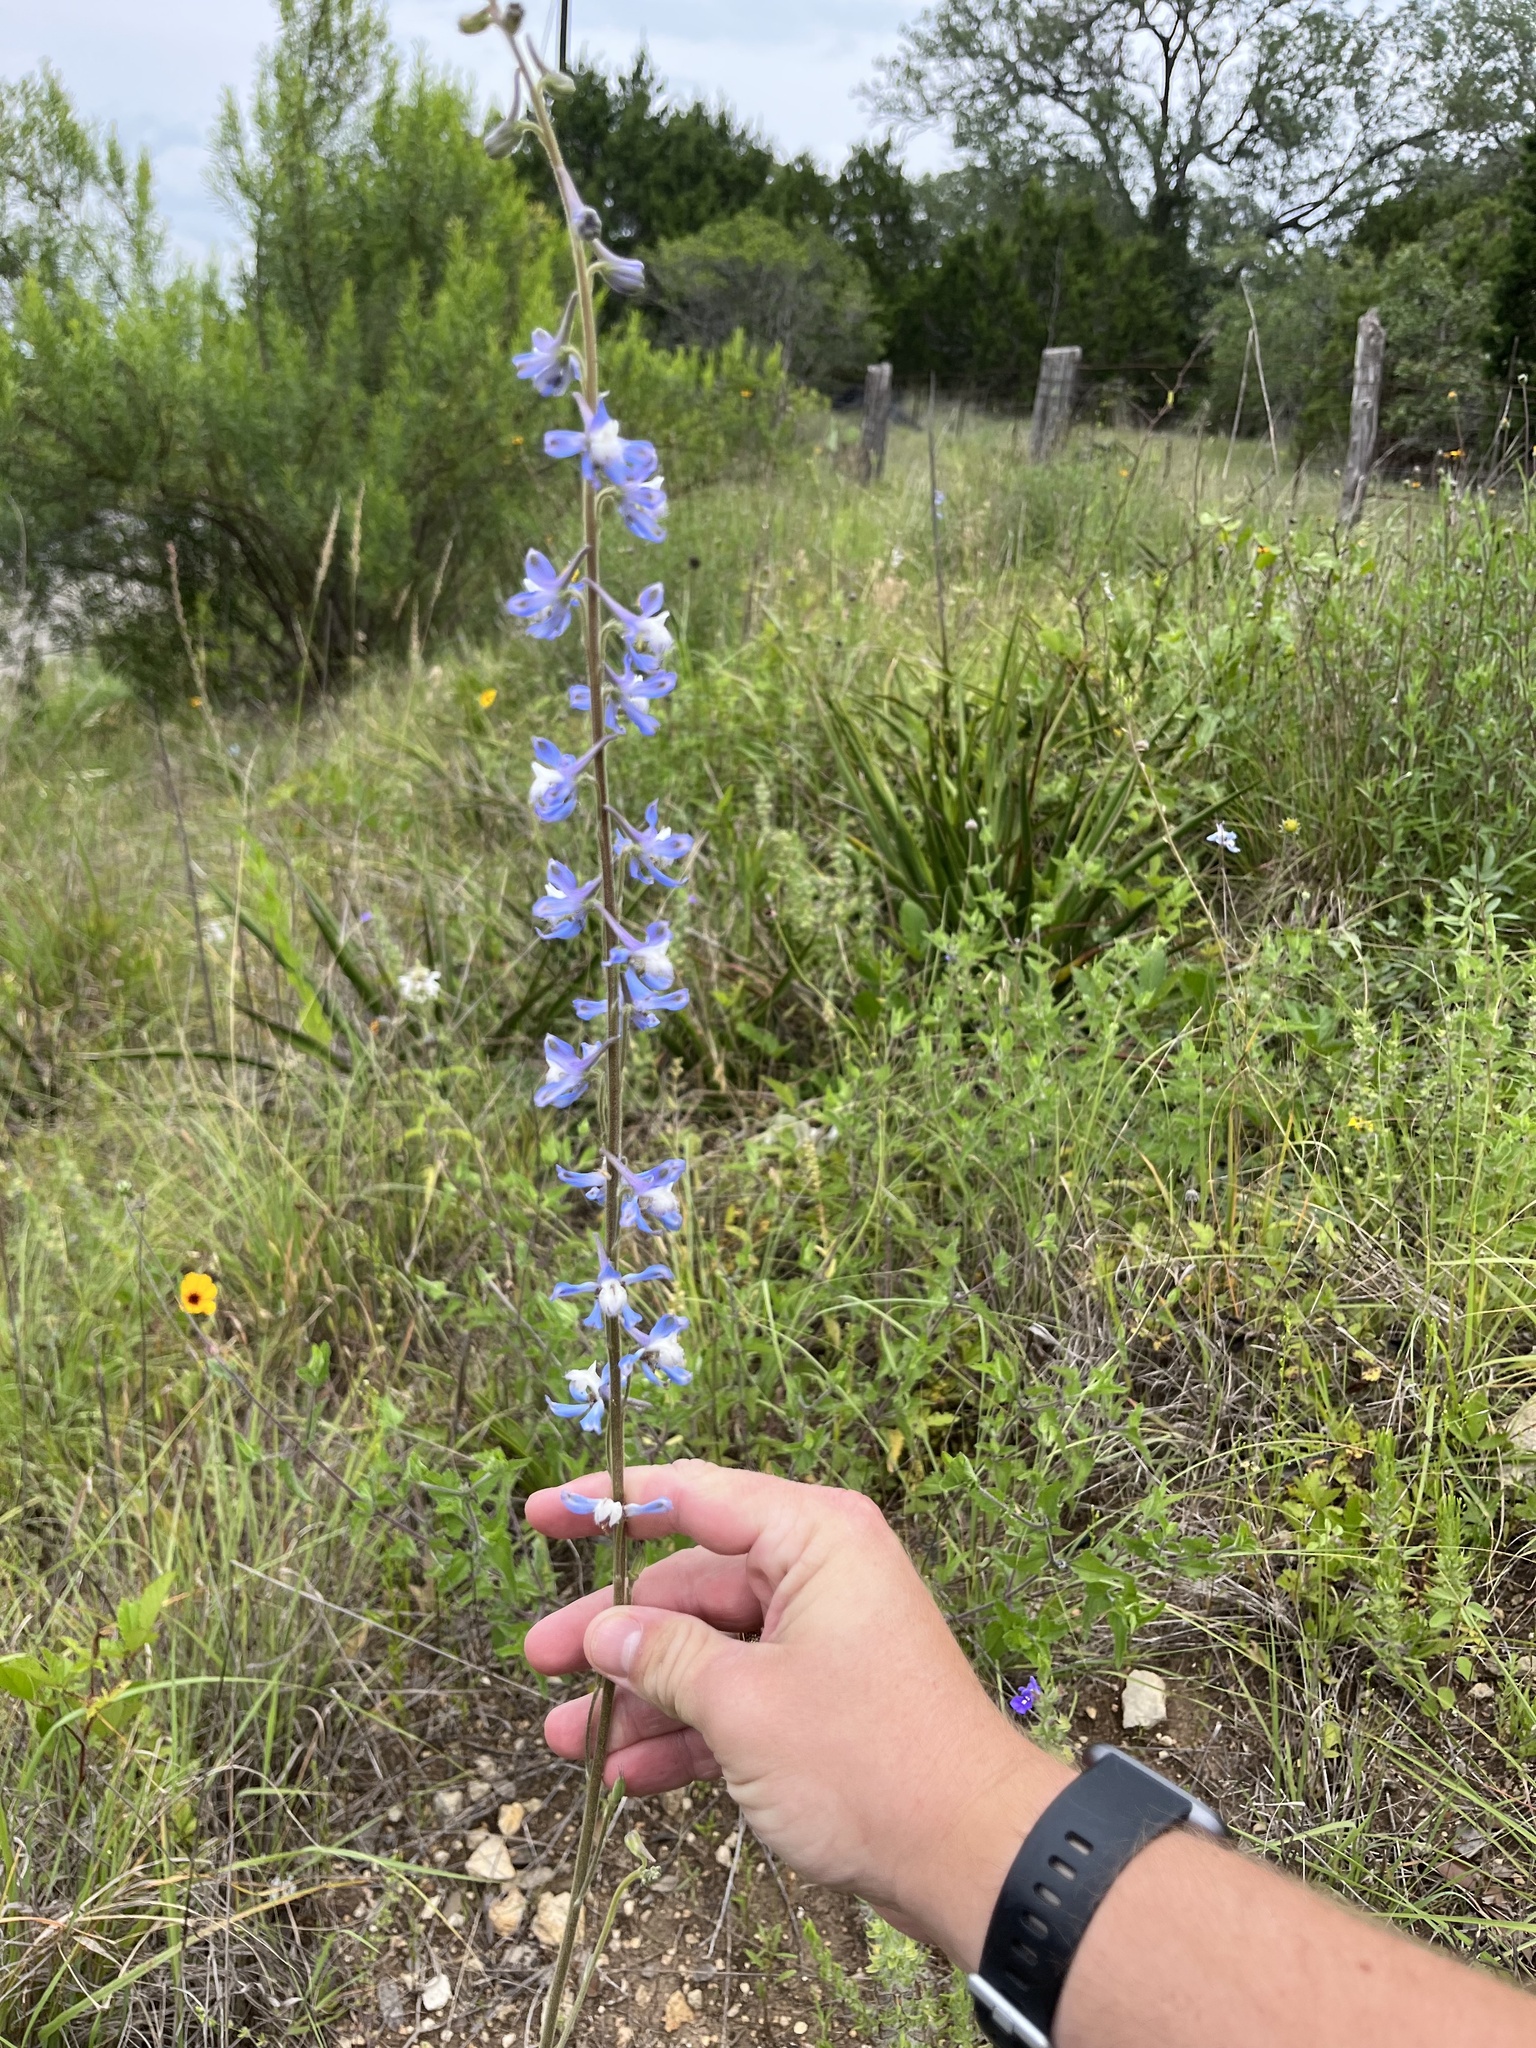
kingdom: Plantae
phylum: Tracheophyta
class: Magnoliopsida
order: Ranunculales
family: Ranunculaceae
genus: Delphinium
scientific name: Delphinium carolinianum
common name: Carolina larkspur
